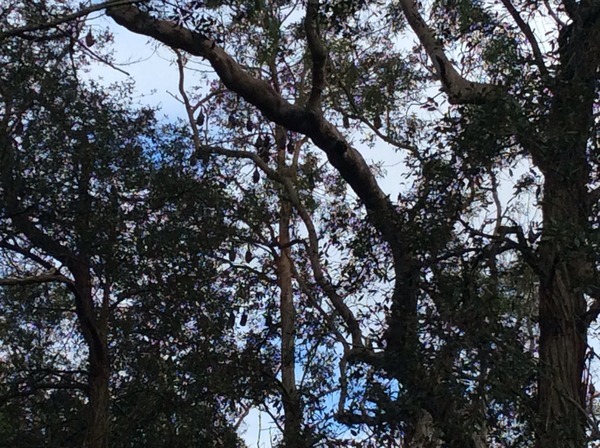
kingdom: Animalia
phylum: Chordata
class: Mammalia
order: Chiroptera
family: Pteropodidae
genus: Pteropus
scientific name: Pteropus poliocephalus
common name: Gray-headed flying fox
